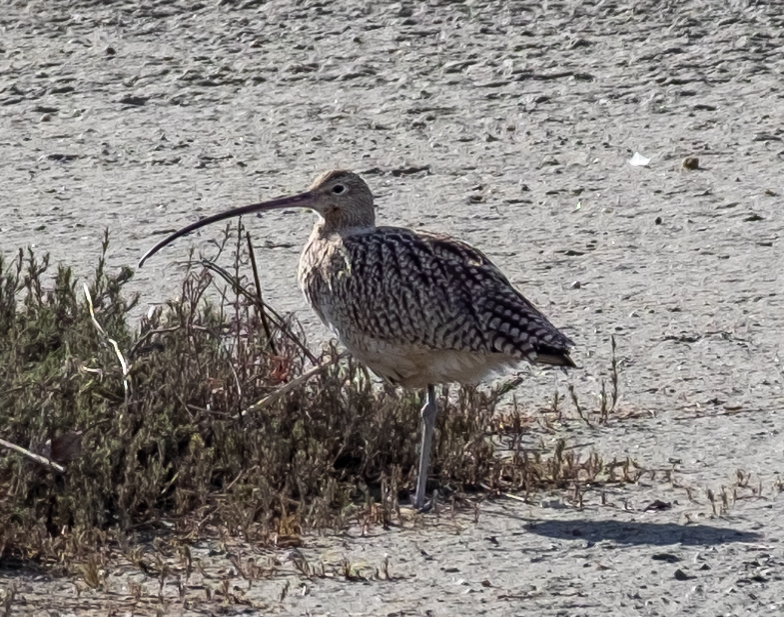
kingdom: Animalia
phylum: Chordata
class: Aves
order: Charadriiformes
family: Scolopacidae
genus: Numenius
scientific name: Numenius americanus
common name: Long-billed curlew
